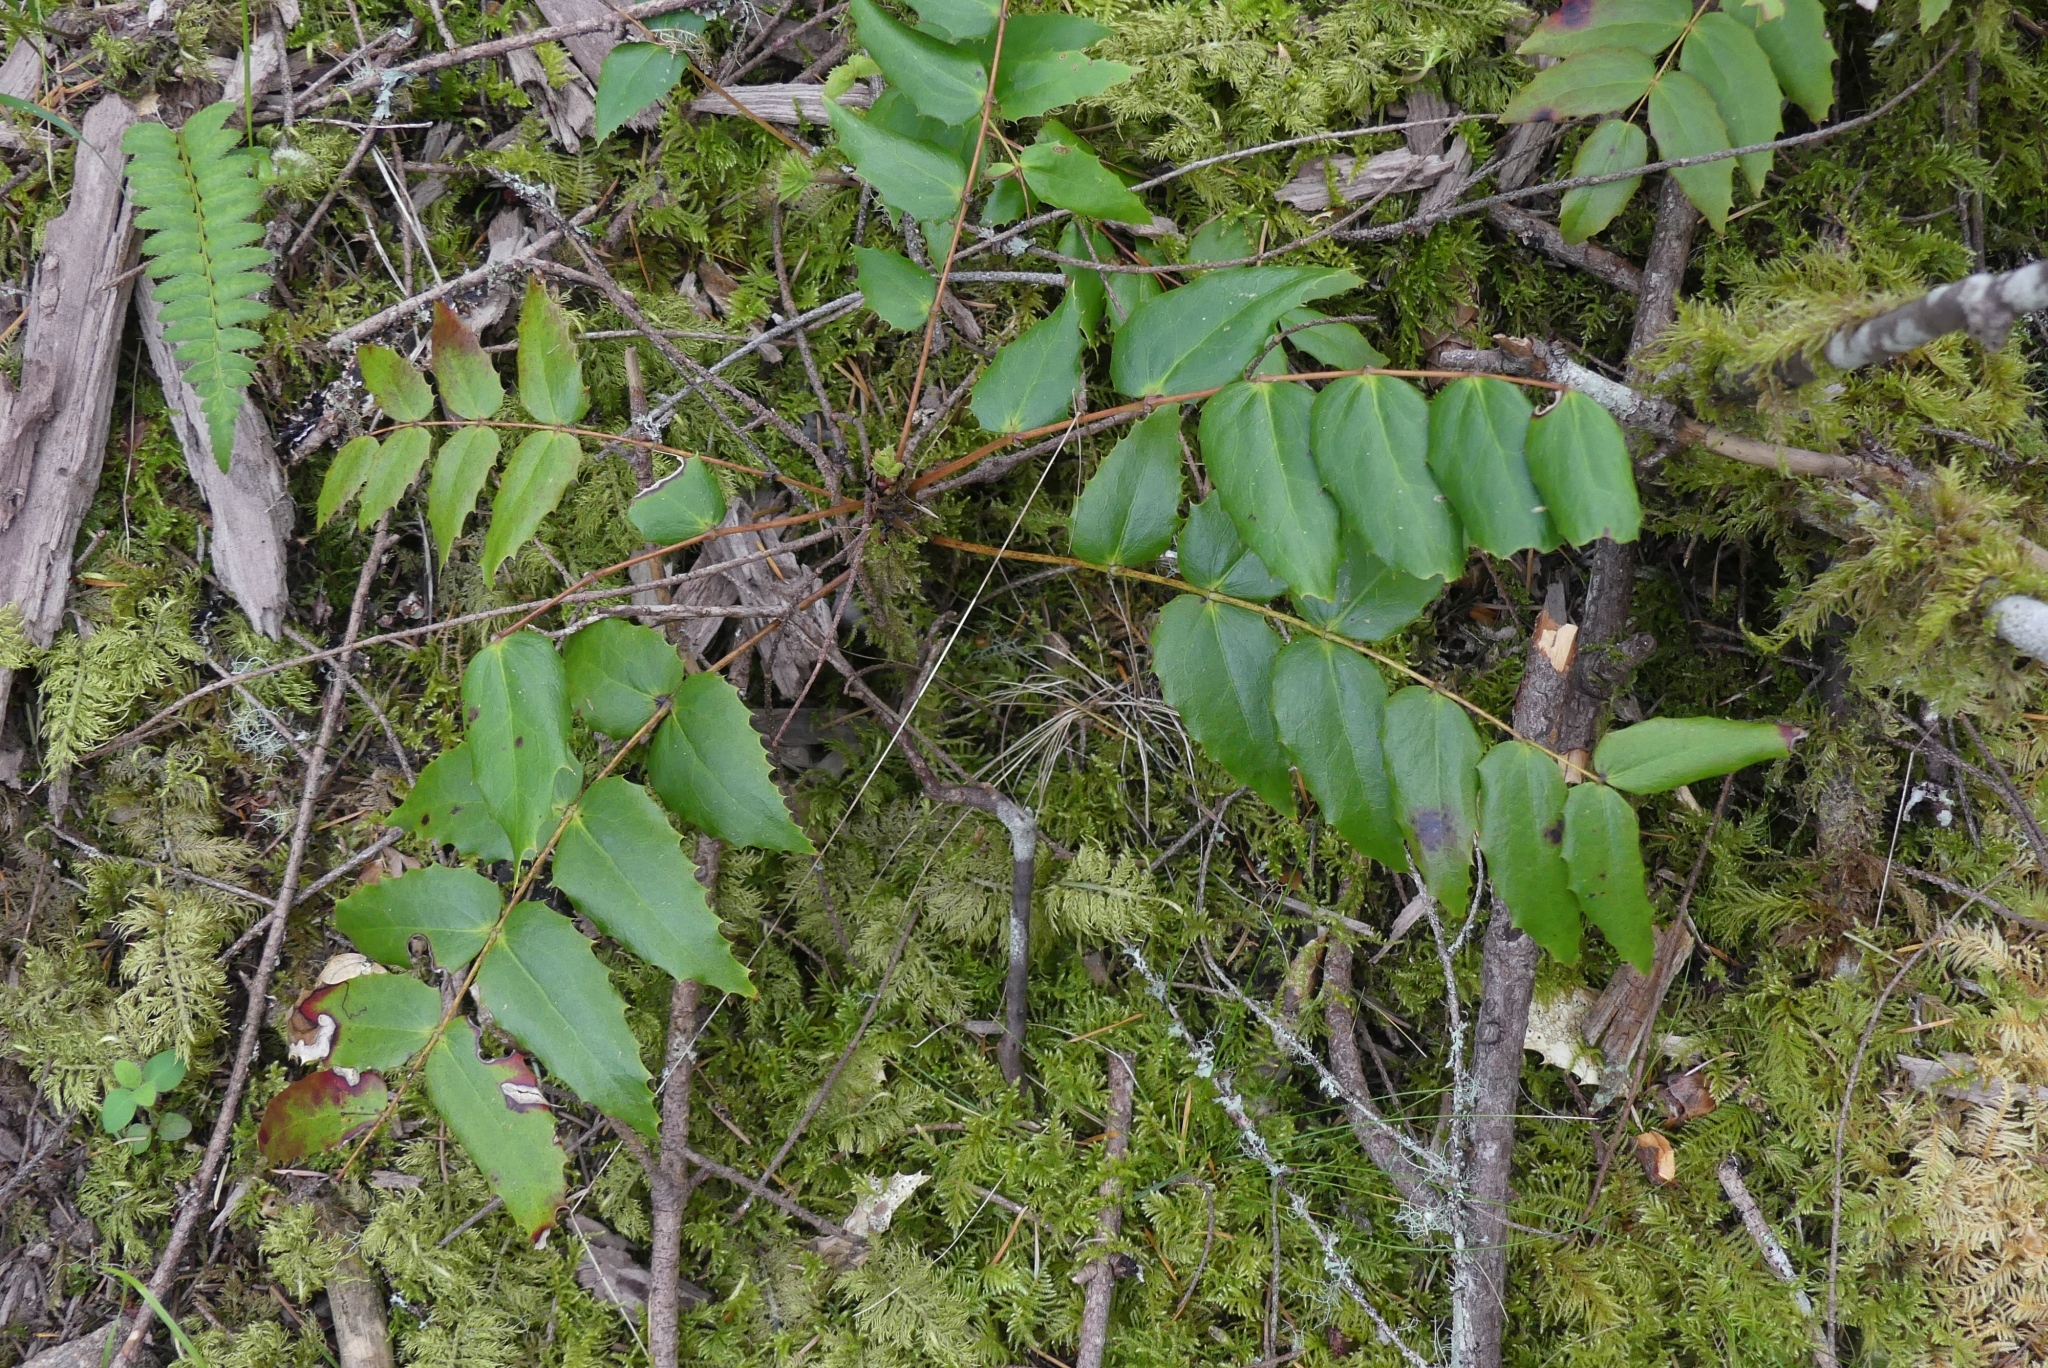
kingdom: Plantae
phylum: Tracheophyta
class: Magnoliopsida
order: Ranunculales
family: Berberidaceae
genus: Mahonia
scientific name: Mahonia nervosa
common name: Cascade oregon-grape
